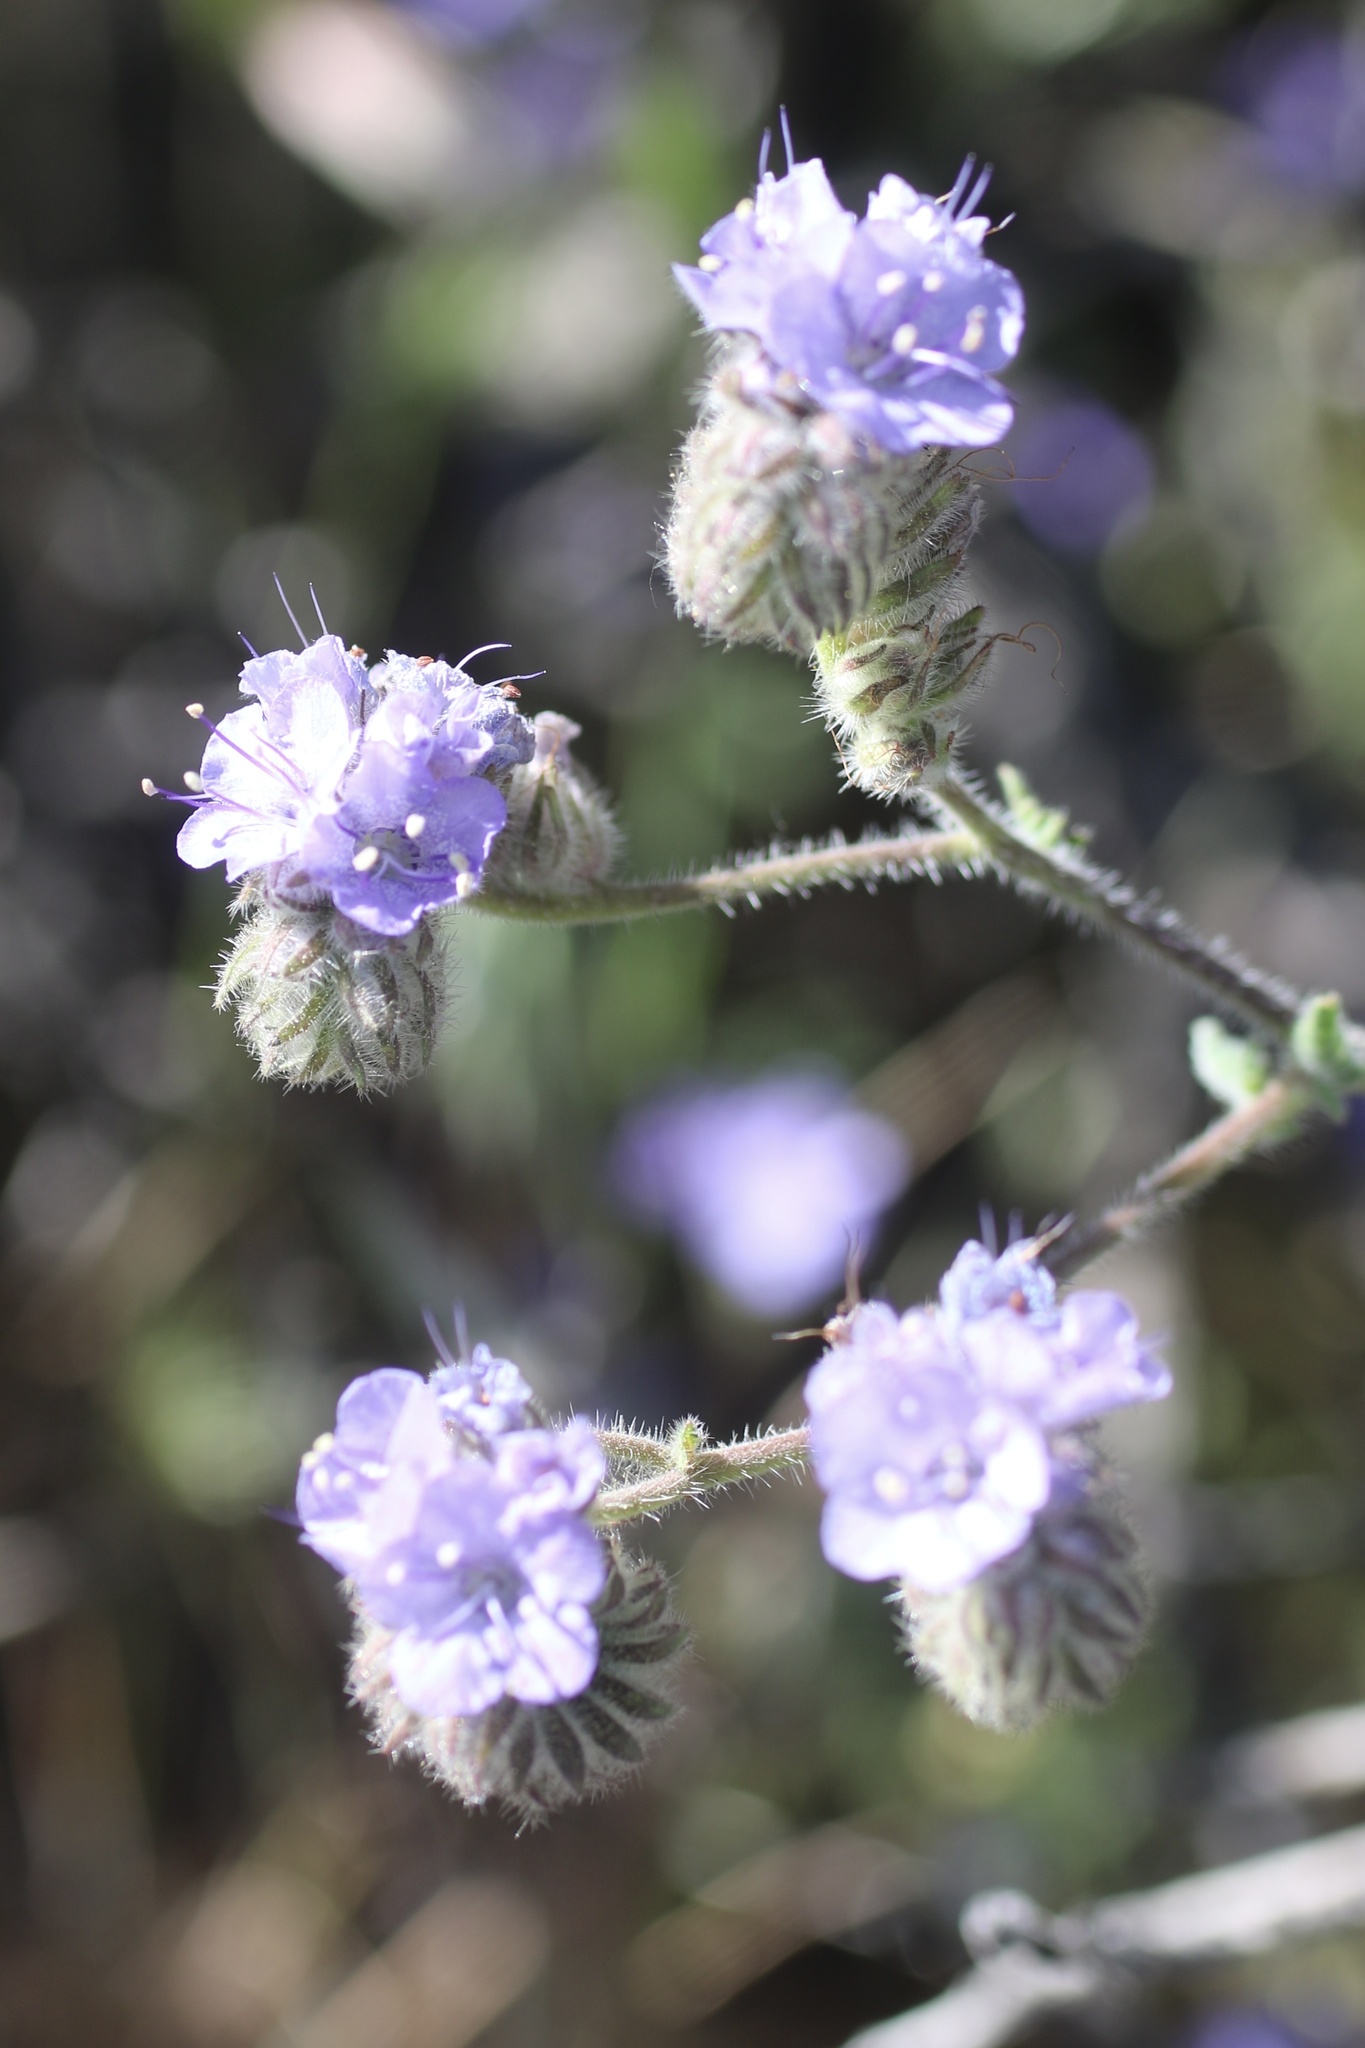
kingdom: Plantae
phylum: Tracheophyta
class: Magnoliopsida
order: Boraginales
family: Hydrophyllaceae
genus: Phacelia
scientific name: Phacelia distans
